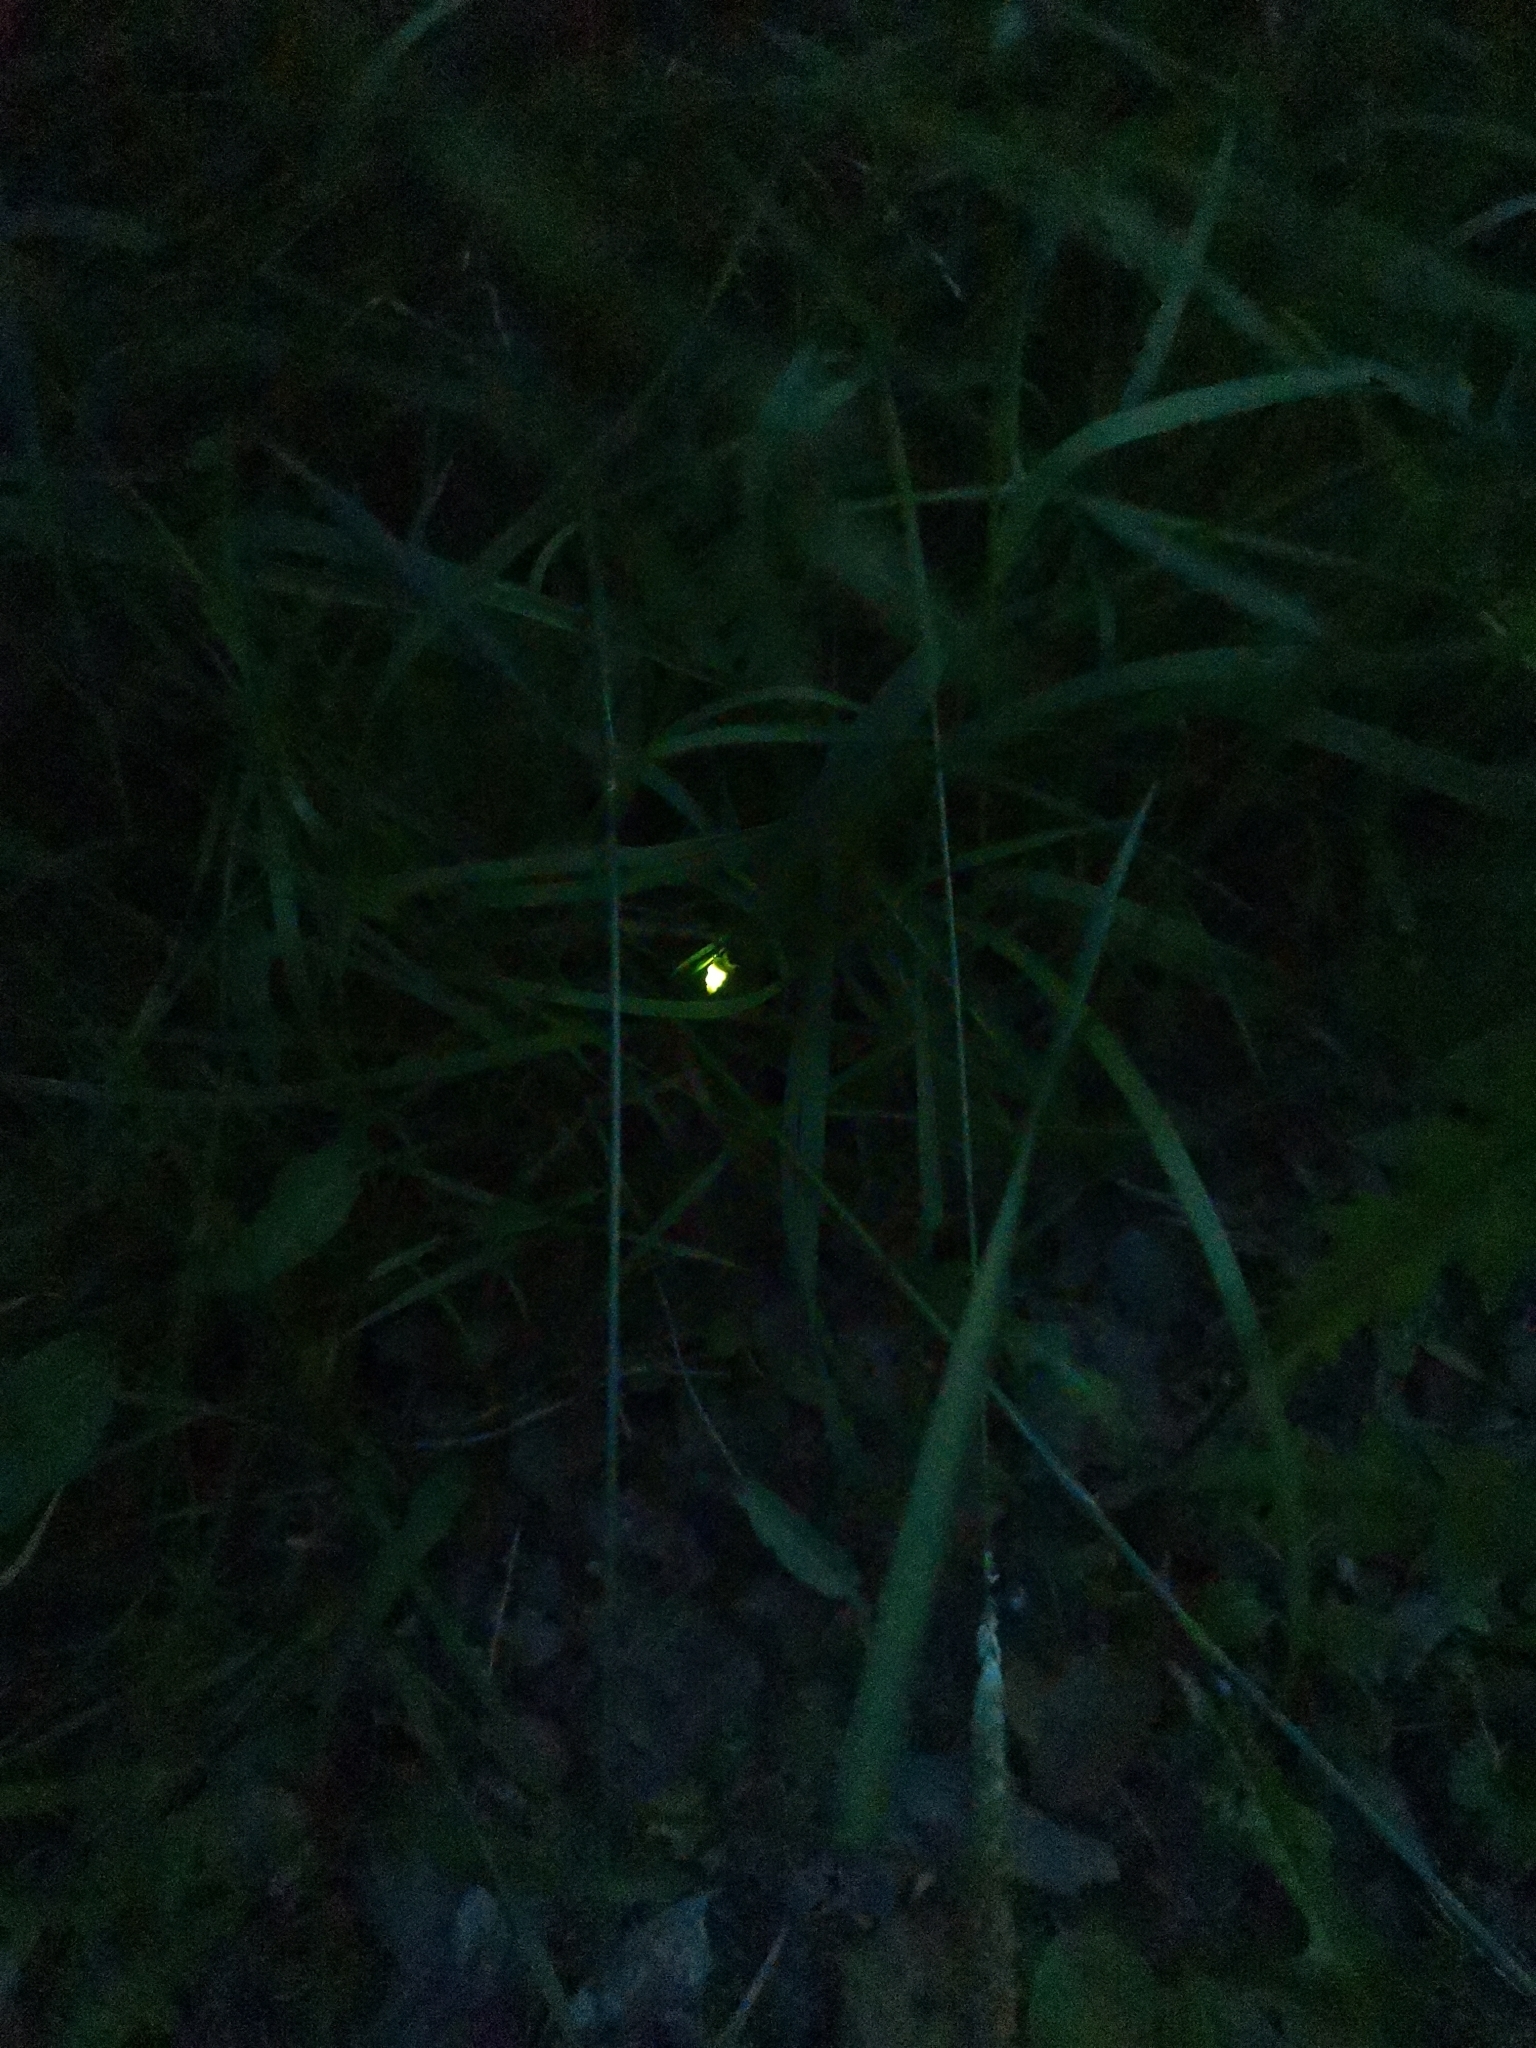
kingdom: Animalia
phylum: Arthropoda
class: Insecta
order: Coleoptera
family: Lampyridae
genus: Lampyris
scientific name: Lampyris noctiluca
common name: Glow-worm
